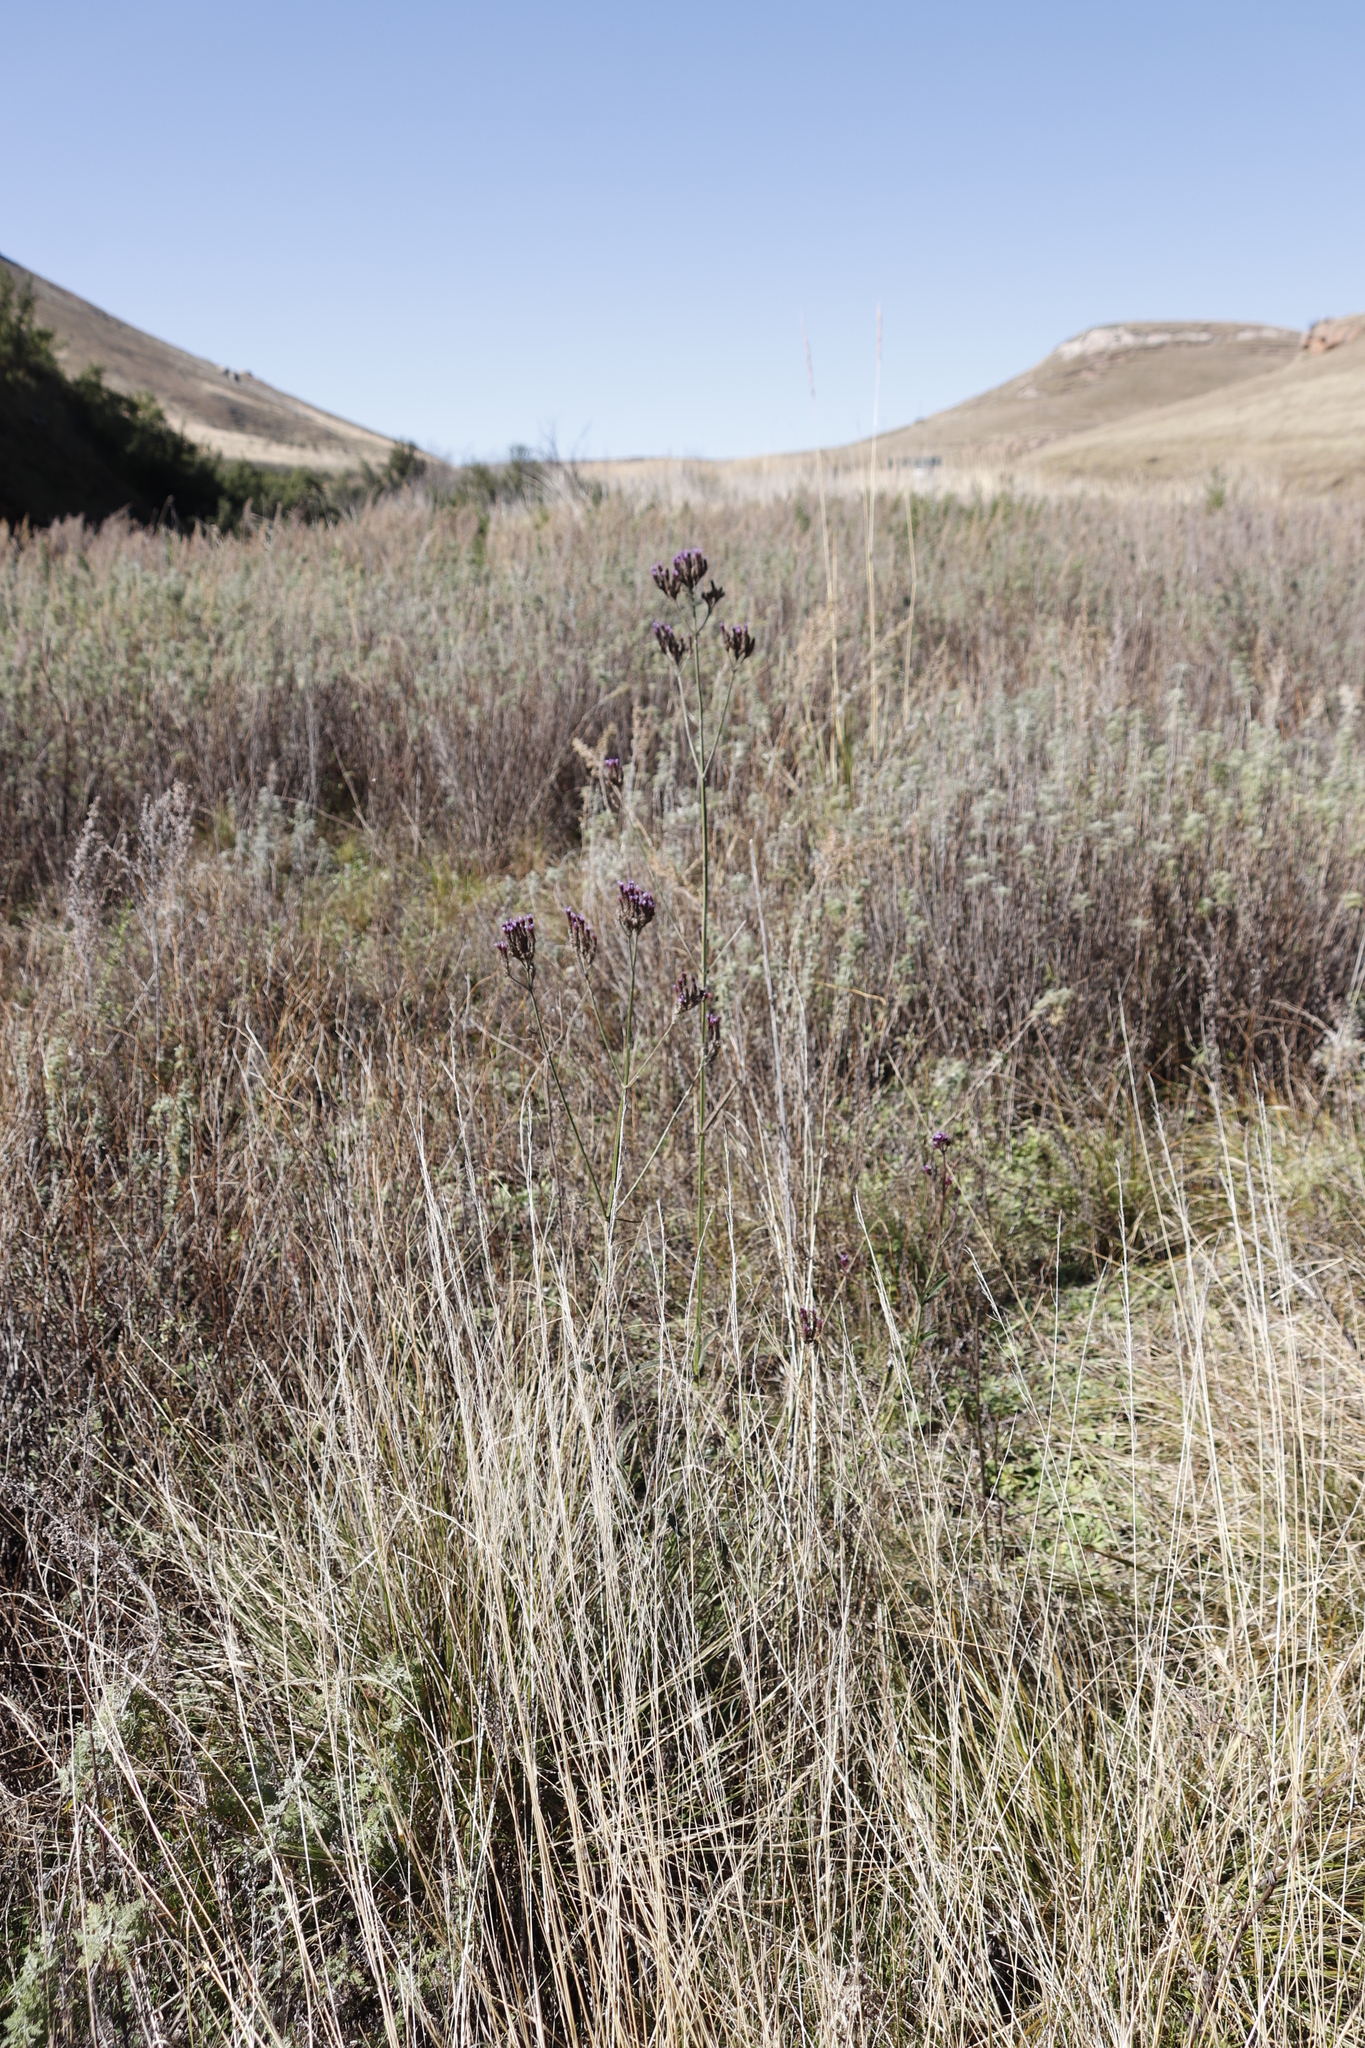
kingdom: Plantae
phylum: Tracheophyta
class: Magnoliopsida
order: Lamiales
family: Verbenaceae
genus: Verbena
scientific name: Verbena bonariensis
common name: Purpletop vervain
